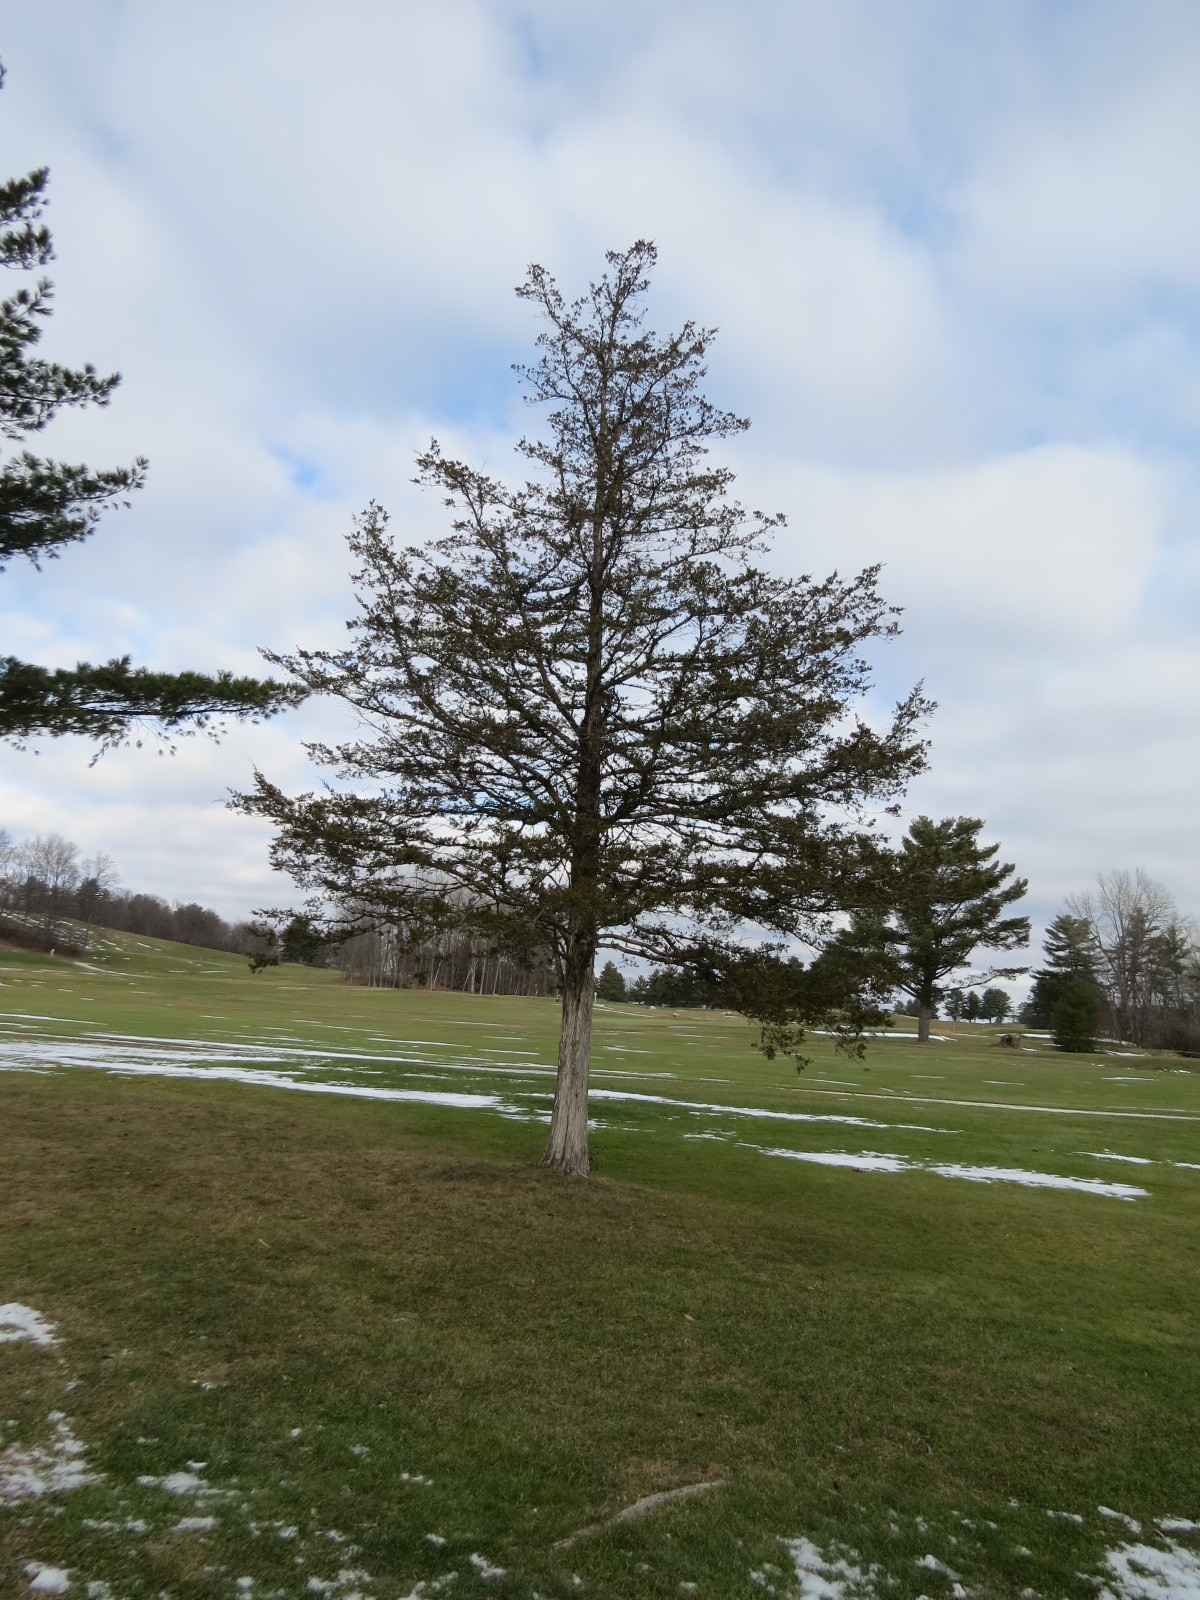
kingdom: Plantae
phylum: Tracheophyta
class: Pinopsida
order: Pinales
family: Cupressaceae
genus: Juniperus
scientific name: Juniperus virginiana
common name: Red juniper
